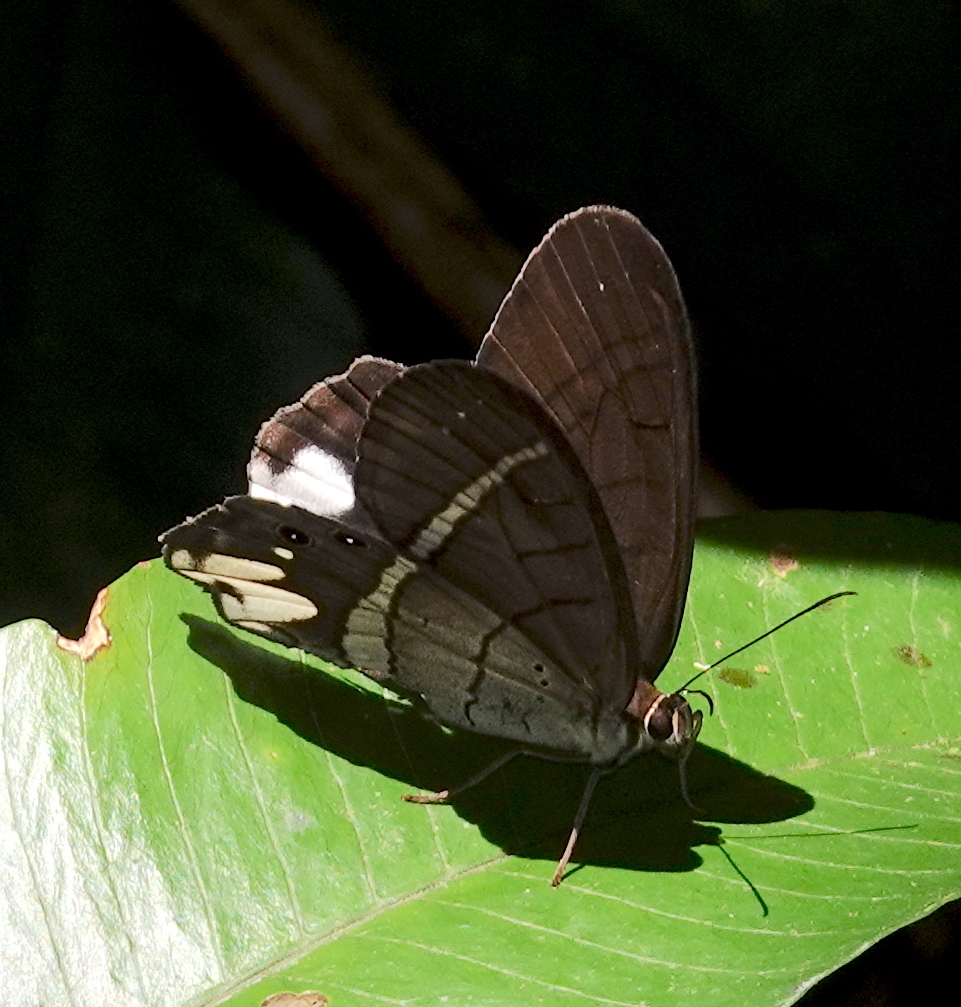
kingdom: Animalia
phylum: Arthropoda
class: Insecta
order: Lepidoptera
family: Nymphalidae
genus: Pierella
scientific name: Pierella astyoche
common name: Astyoche satyr
